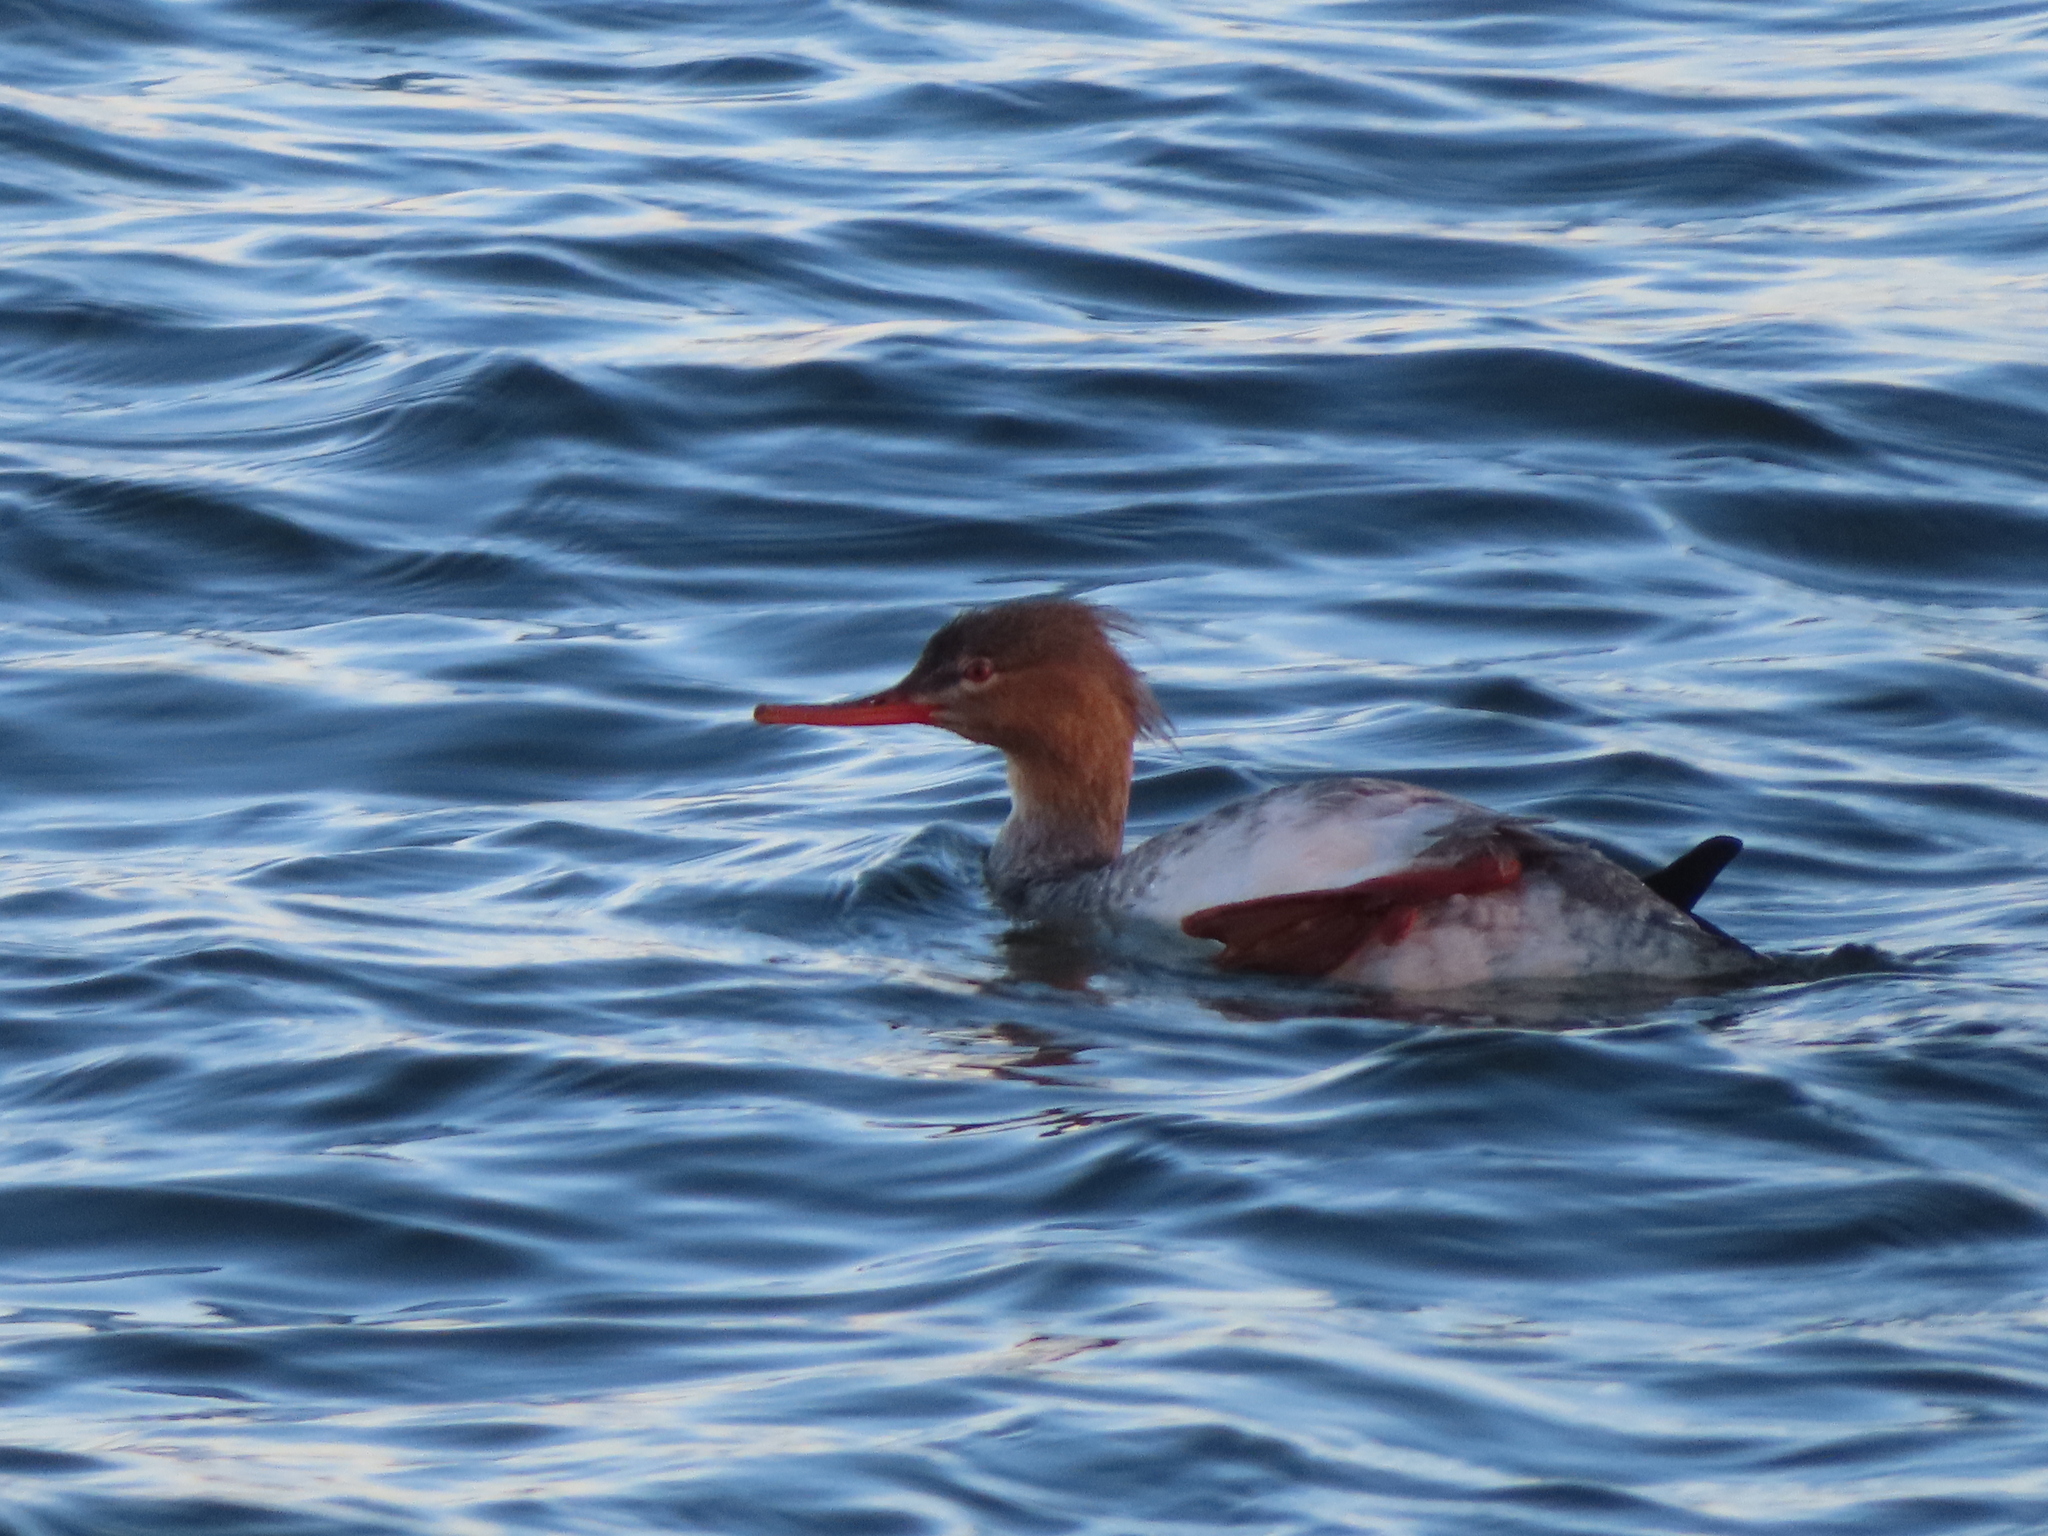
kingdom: Animalia
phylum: Chordata
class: Aves
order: Anseriformes
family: Anatidae
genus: Mergus
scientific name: Mergus serrator
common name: Red-breasted merganser
